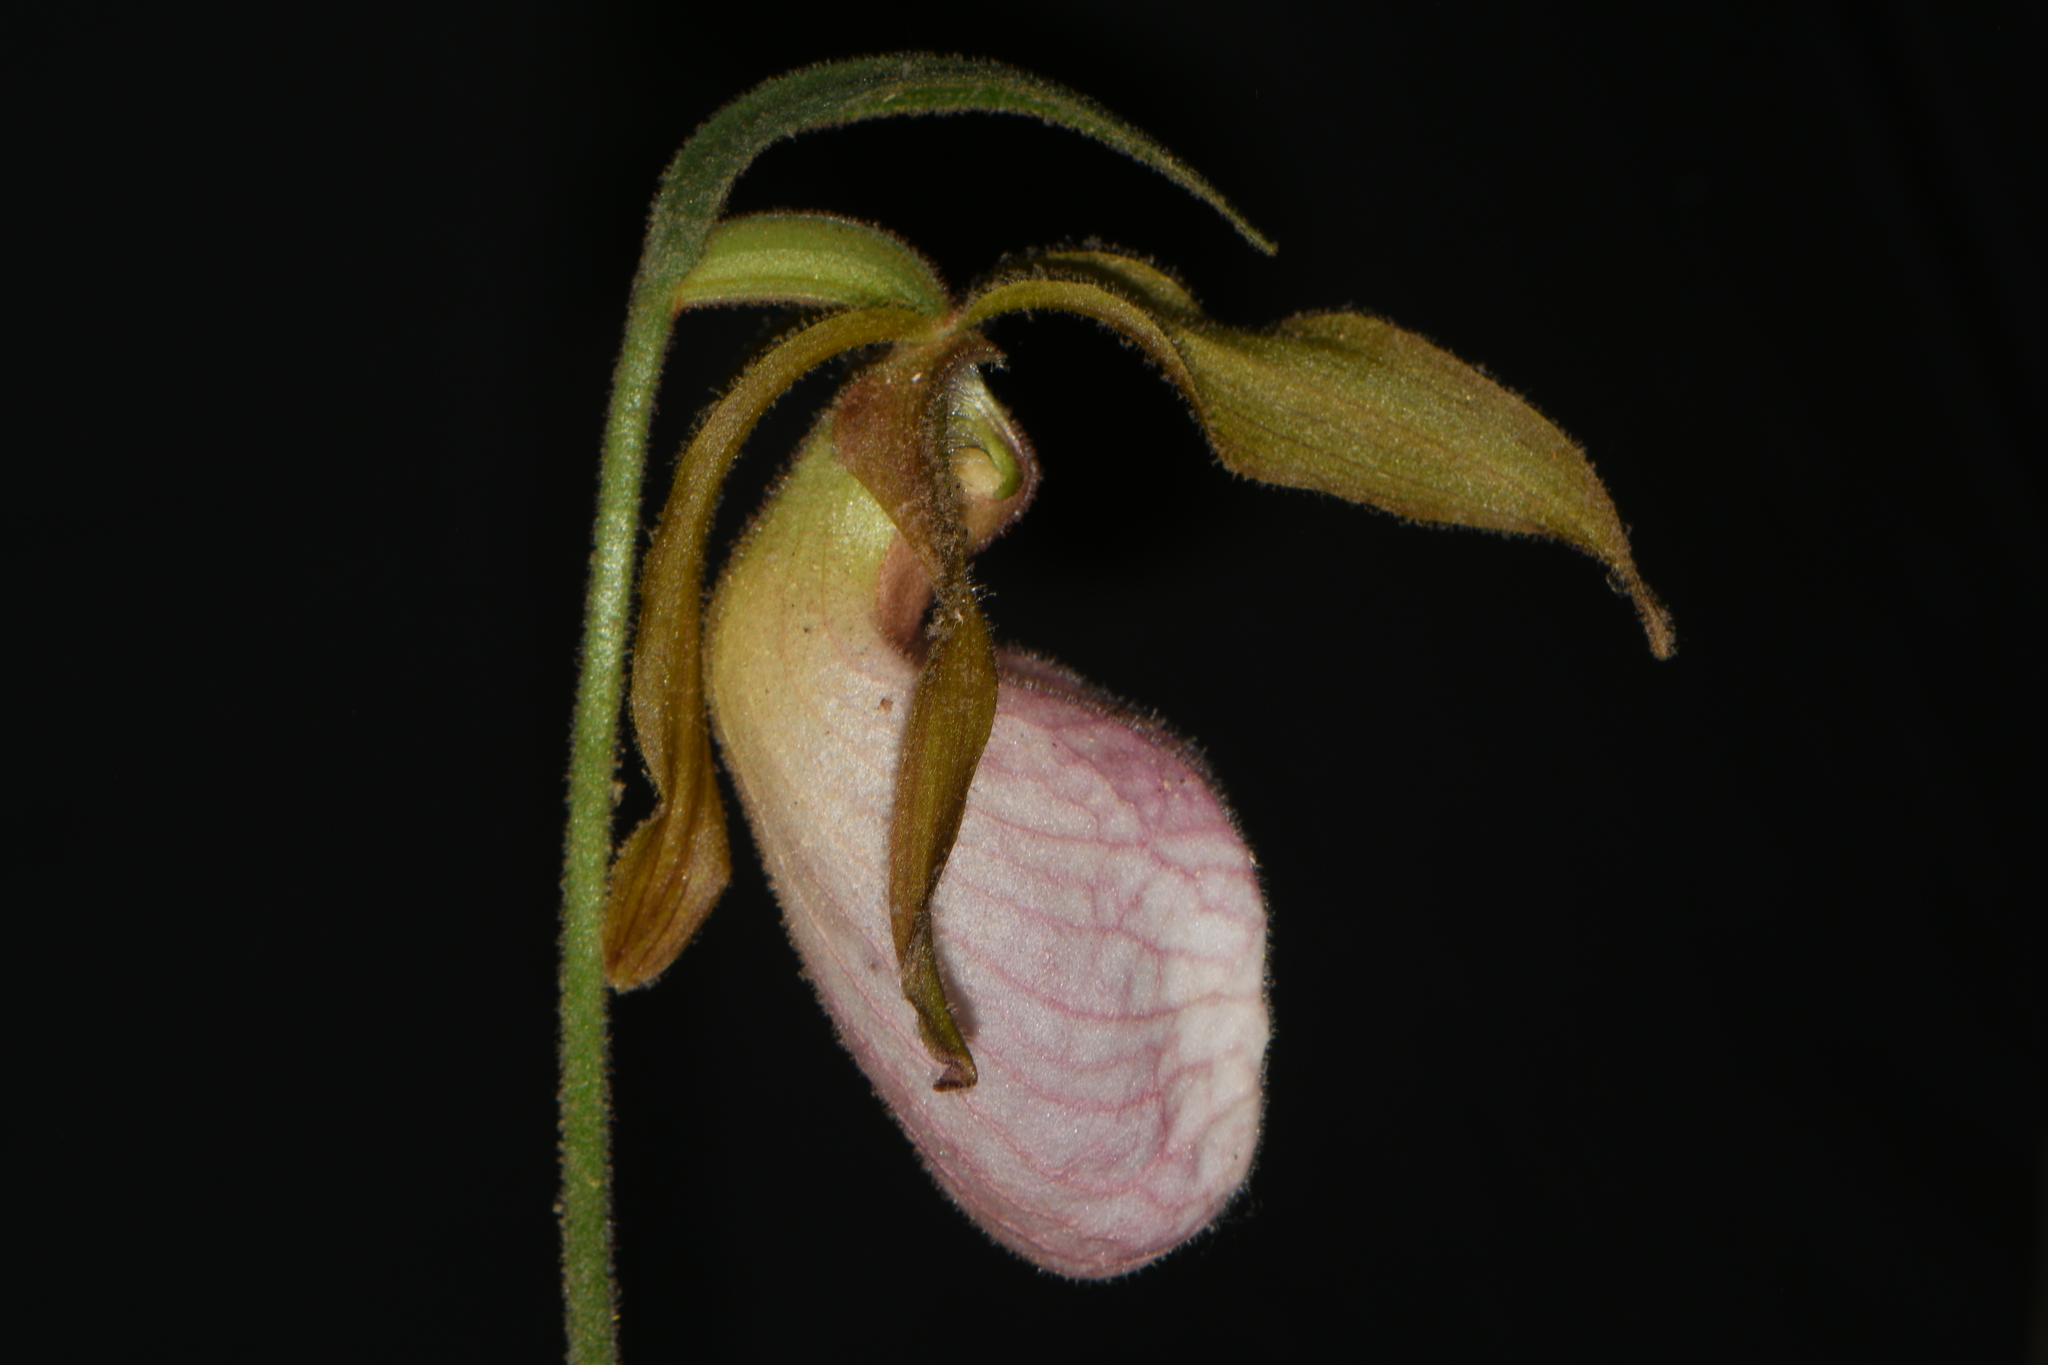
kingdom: Plantae
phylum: Tracheophyta
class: Liliopsida
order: Asparagales
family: Orchidaceae
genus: Cypripedium
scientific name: Cypripedium acaule
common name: Pink lady's-slipper
